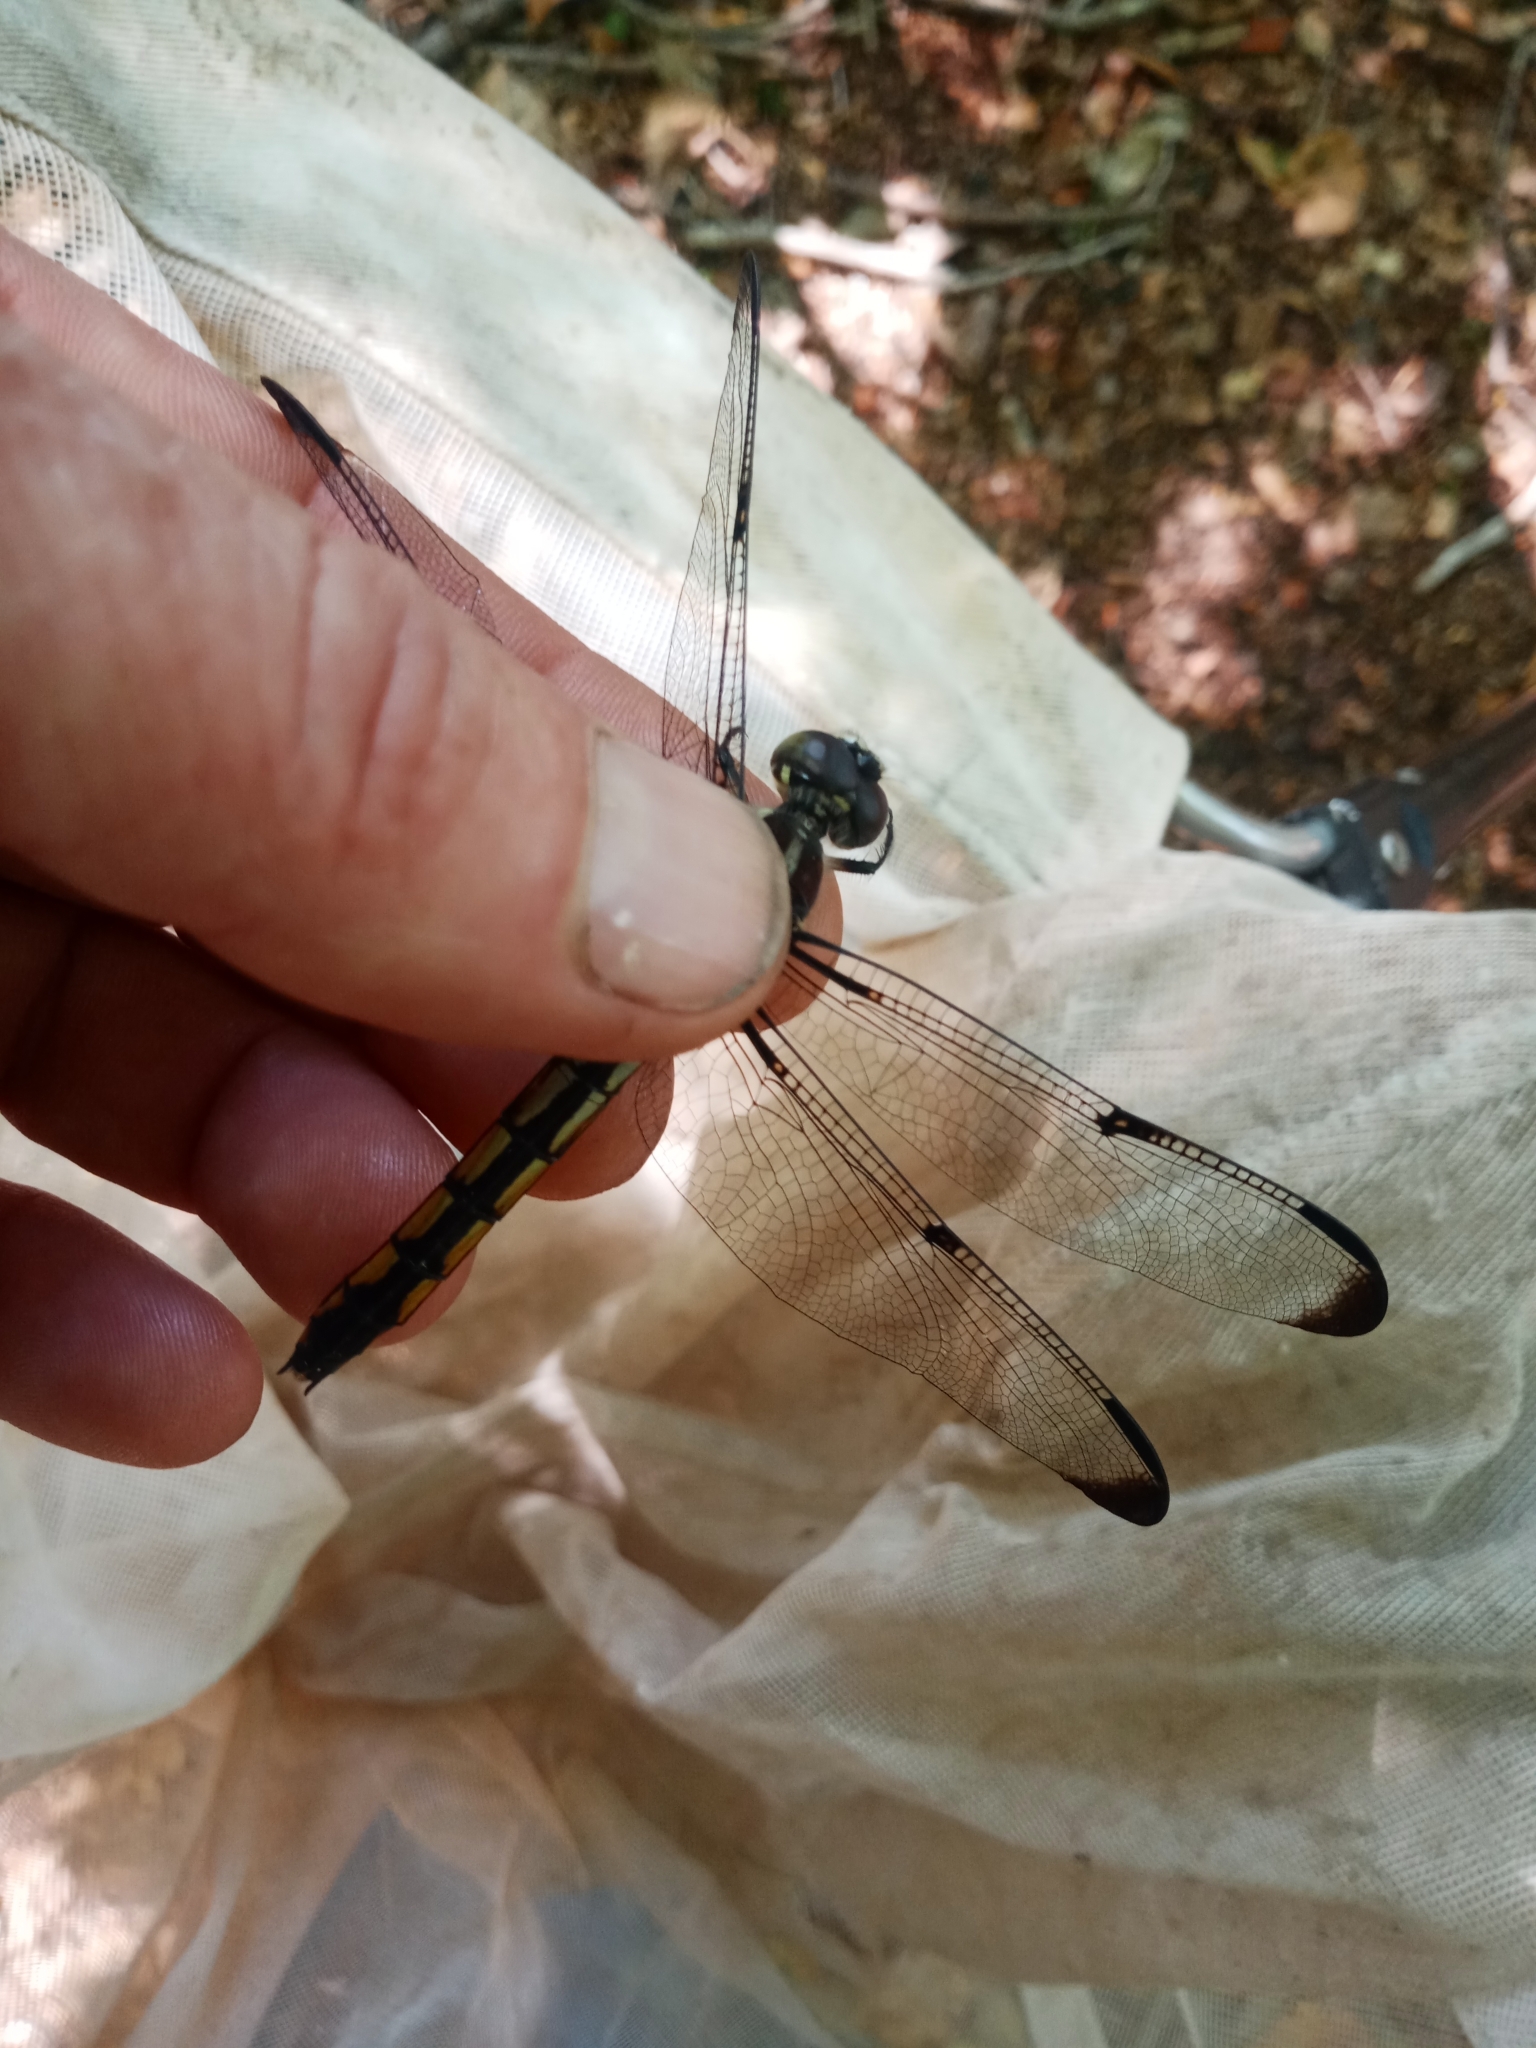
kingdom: Animalia
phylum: Arthropoda
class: Insecta
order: Odonata
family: Libellulidae
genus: Libellula
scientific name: Libellula vibrans
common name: Great blue skimmer
